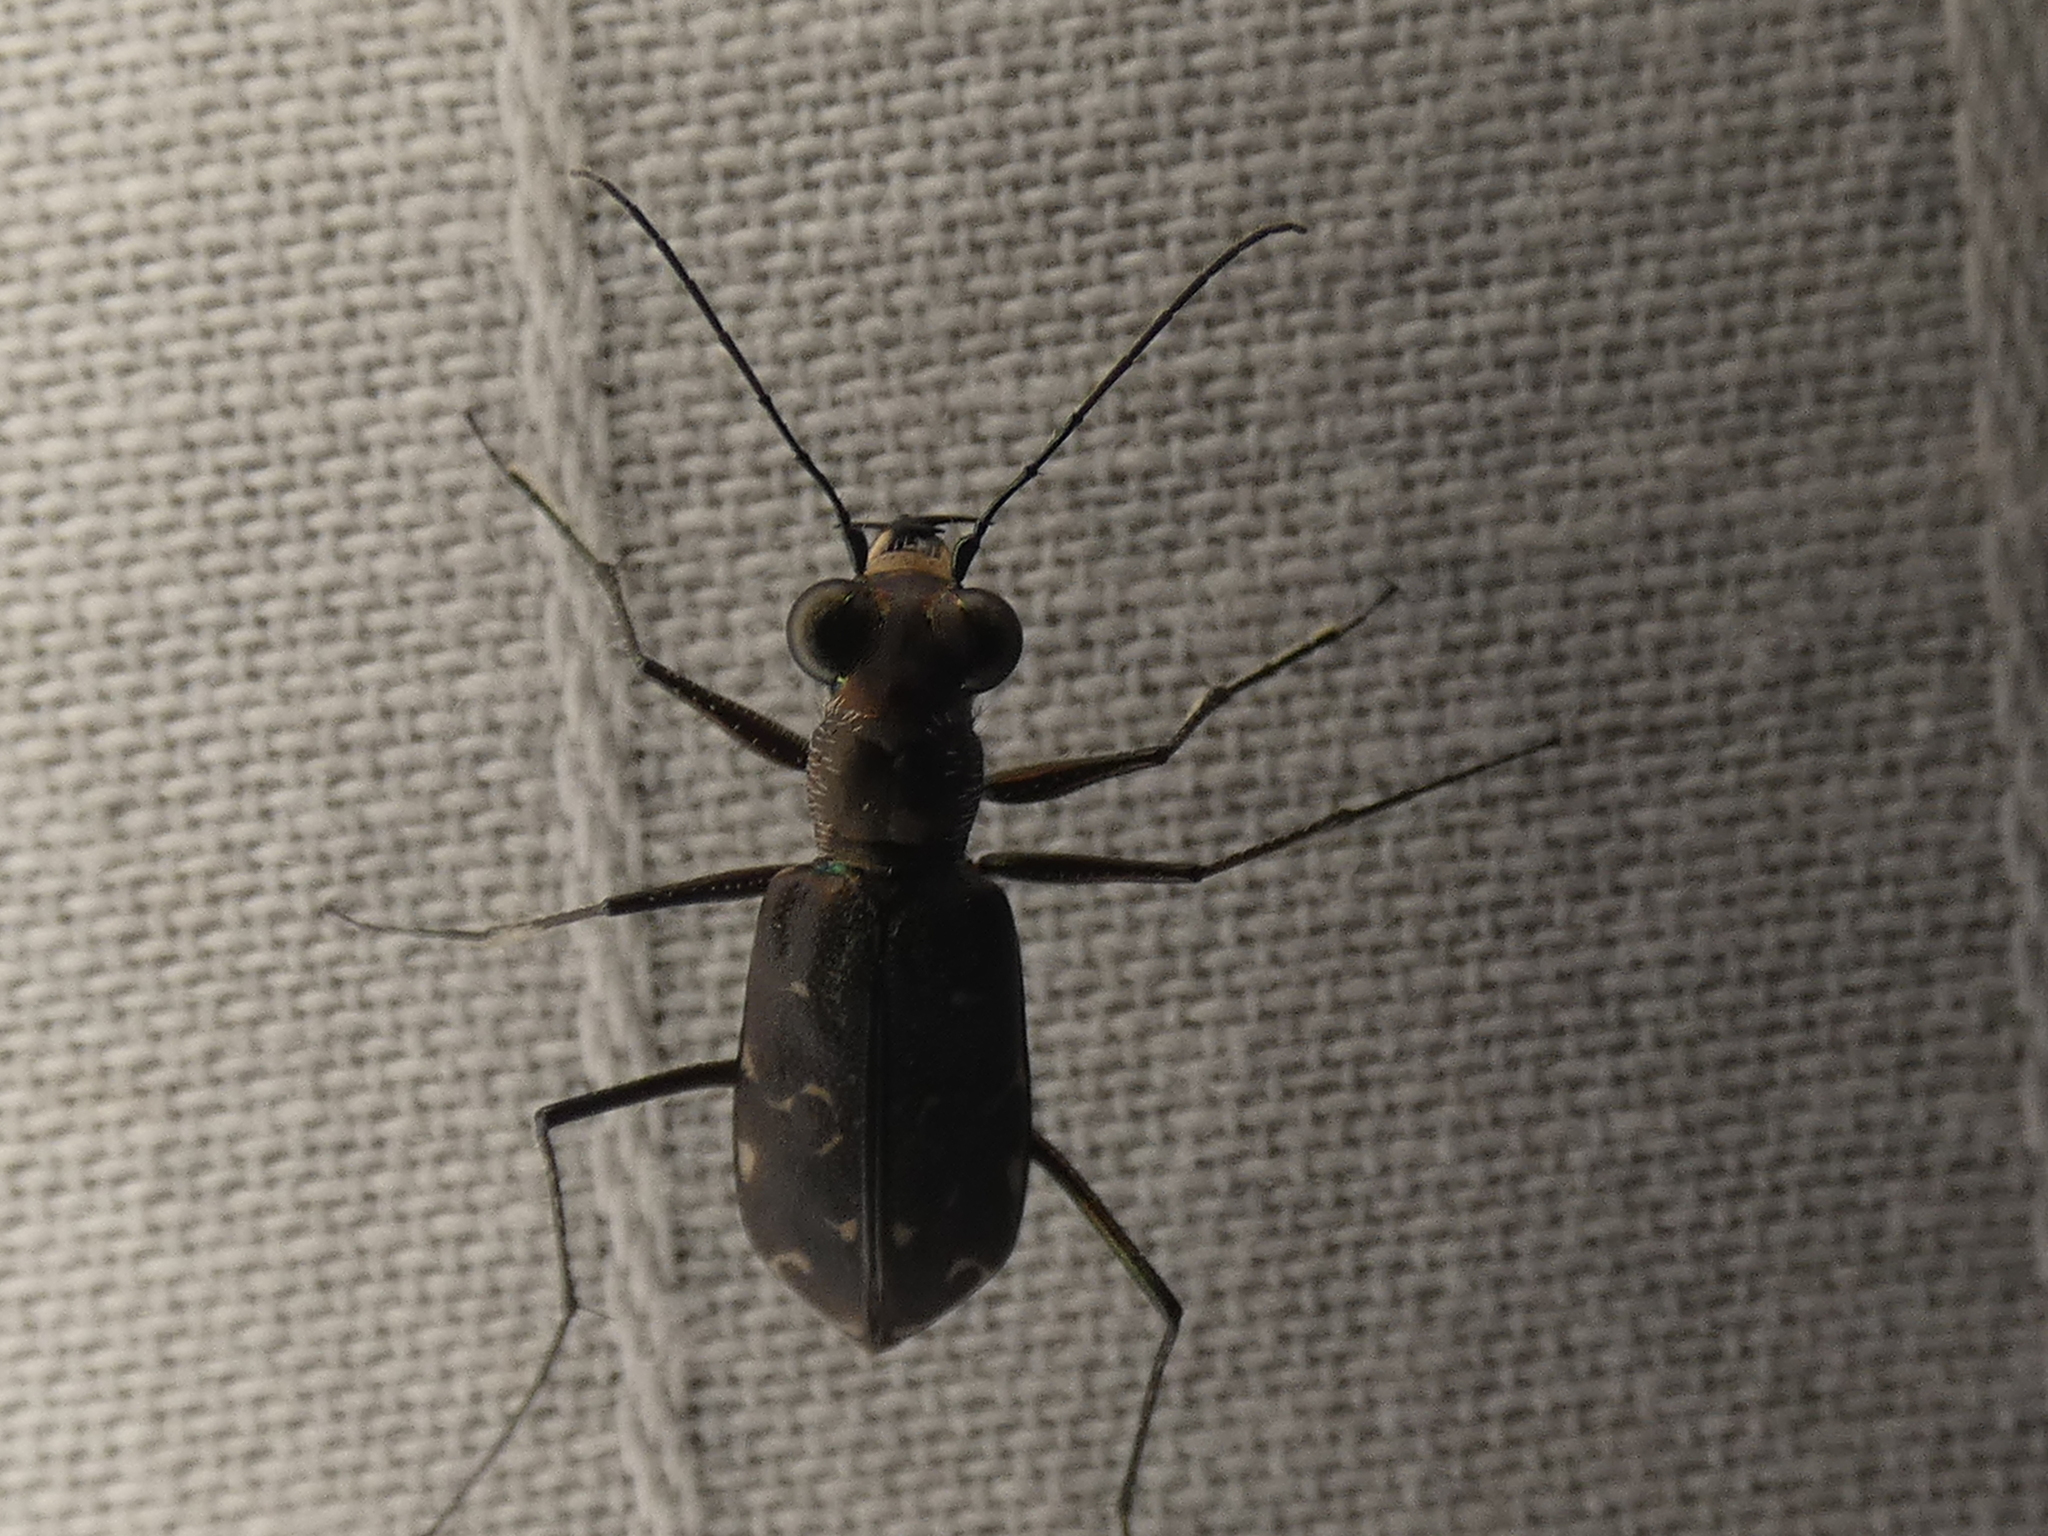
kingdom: Animalia
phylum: Arthropoda
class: Insecta
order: Coleoptera
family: Carabidae
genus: Cicindela
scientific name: Cicindela trifasciata
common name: Mudflat tiger beetle
